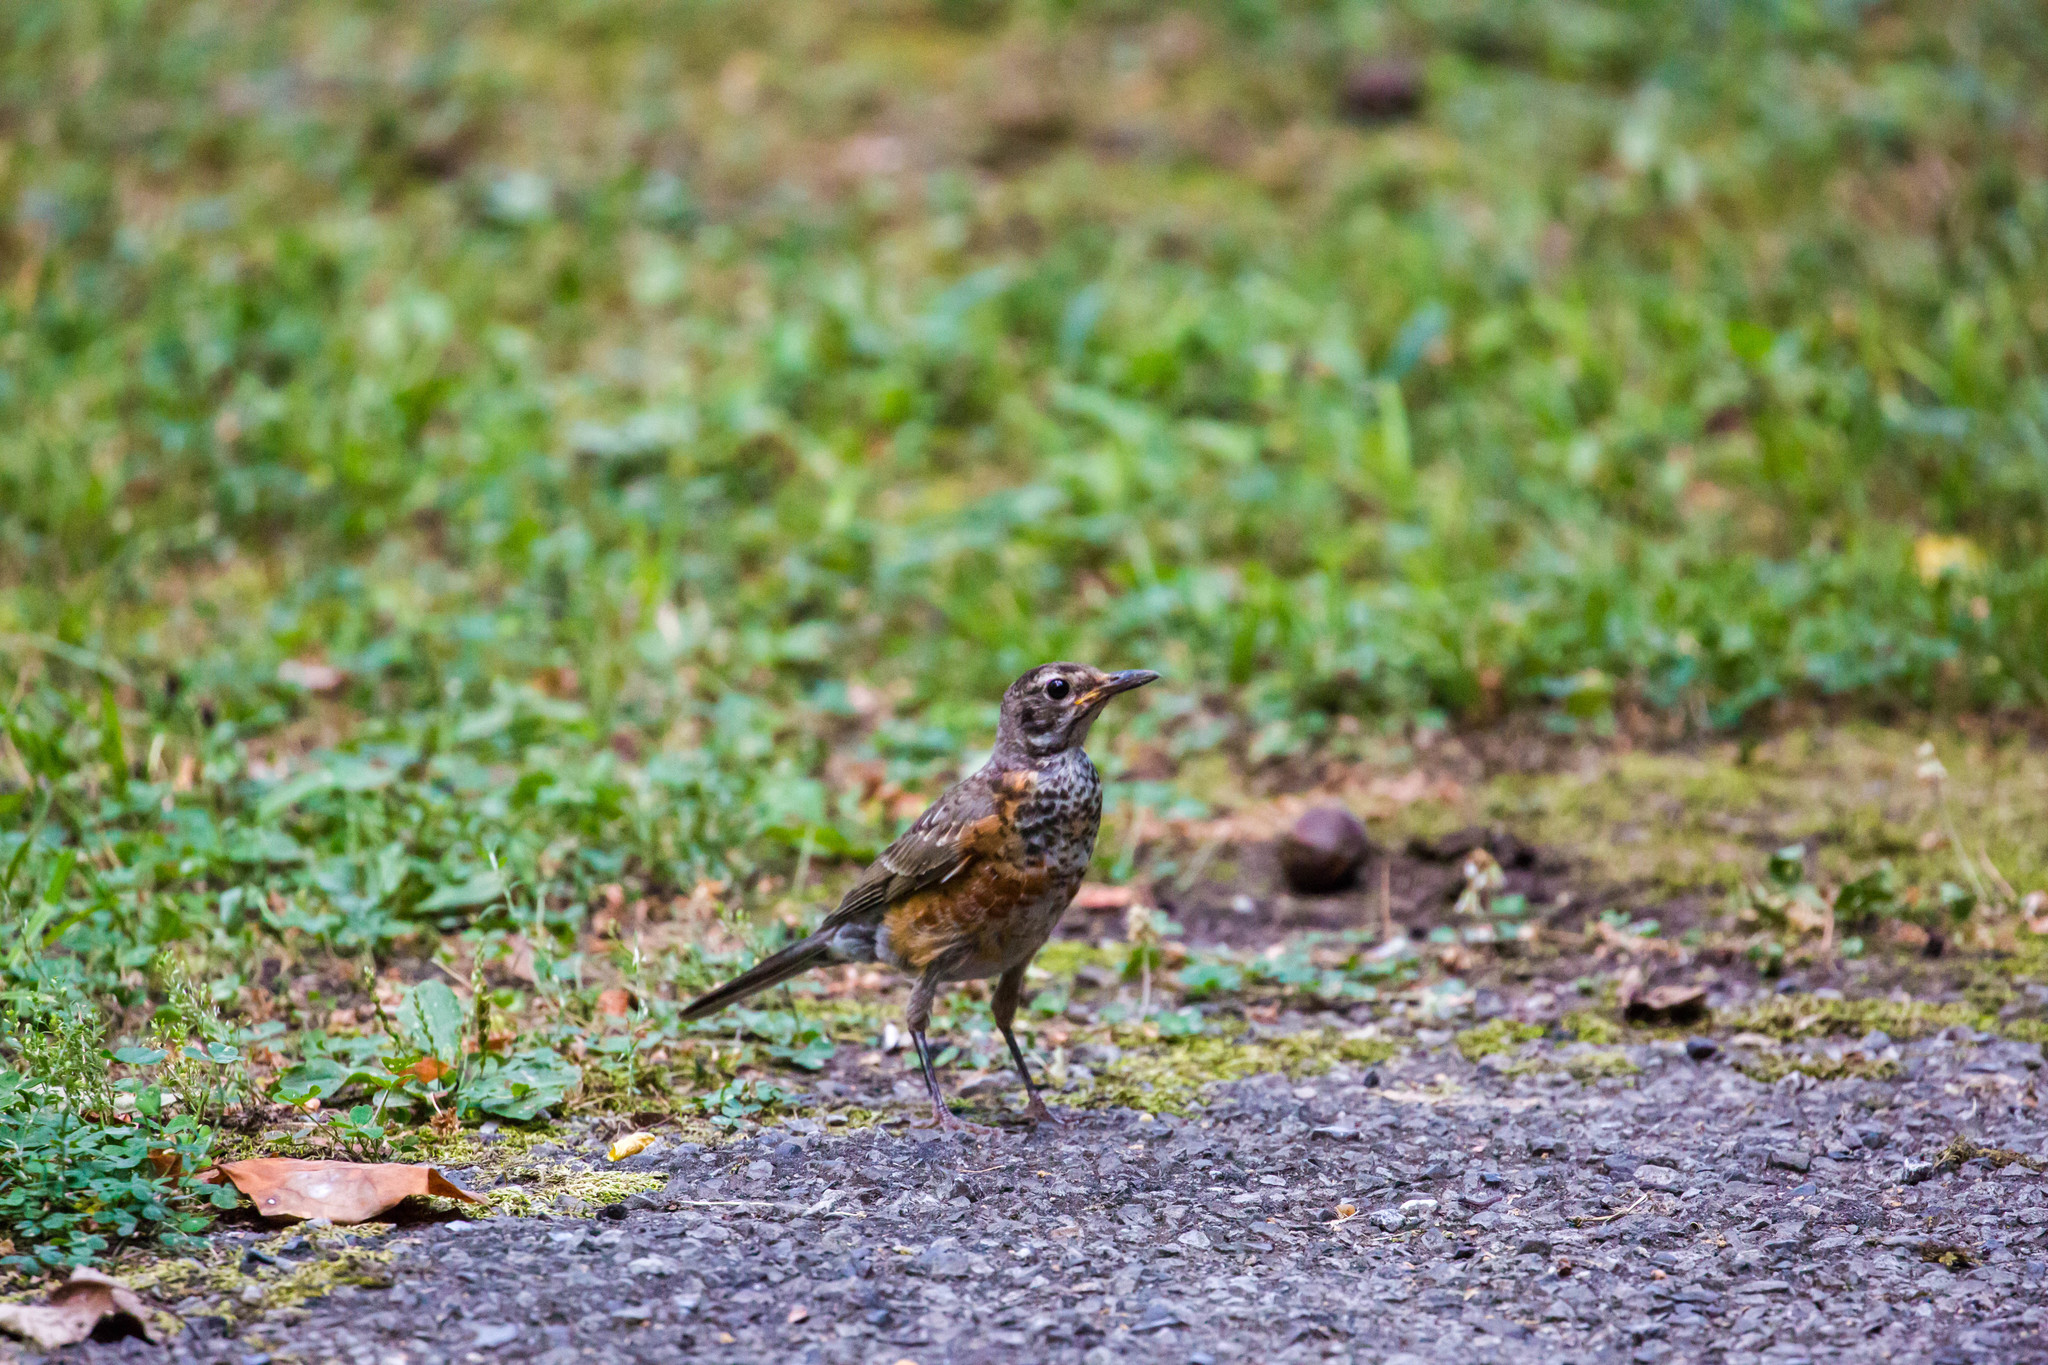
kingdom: Animalia
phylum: Chordata
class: Aves
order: Passeriformes
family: Turdidae
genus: Turdus
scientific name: Turdus migratorius
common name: American robin
